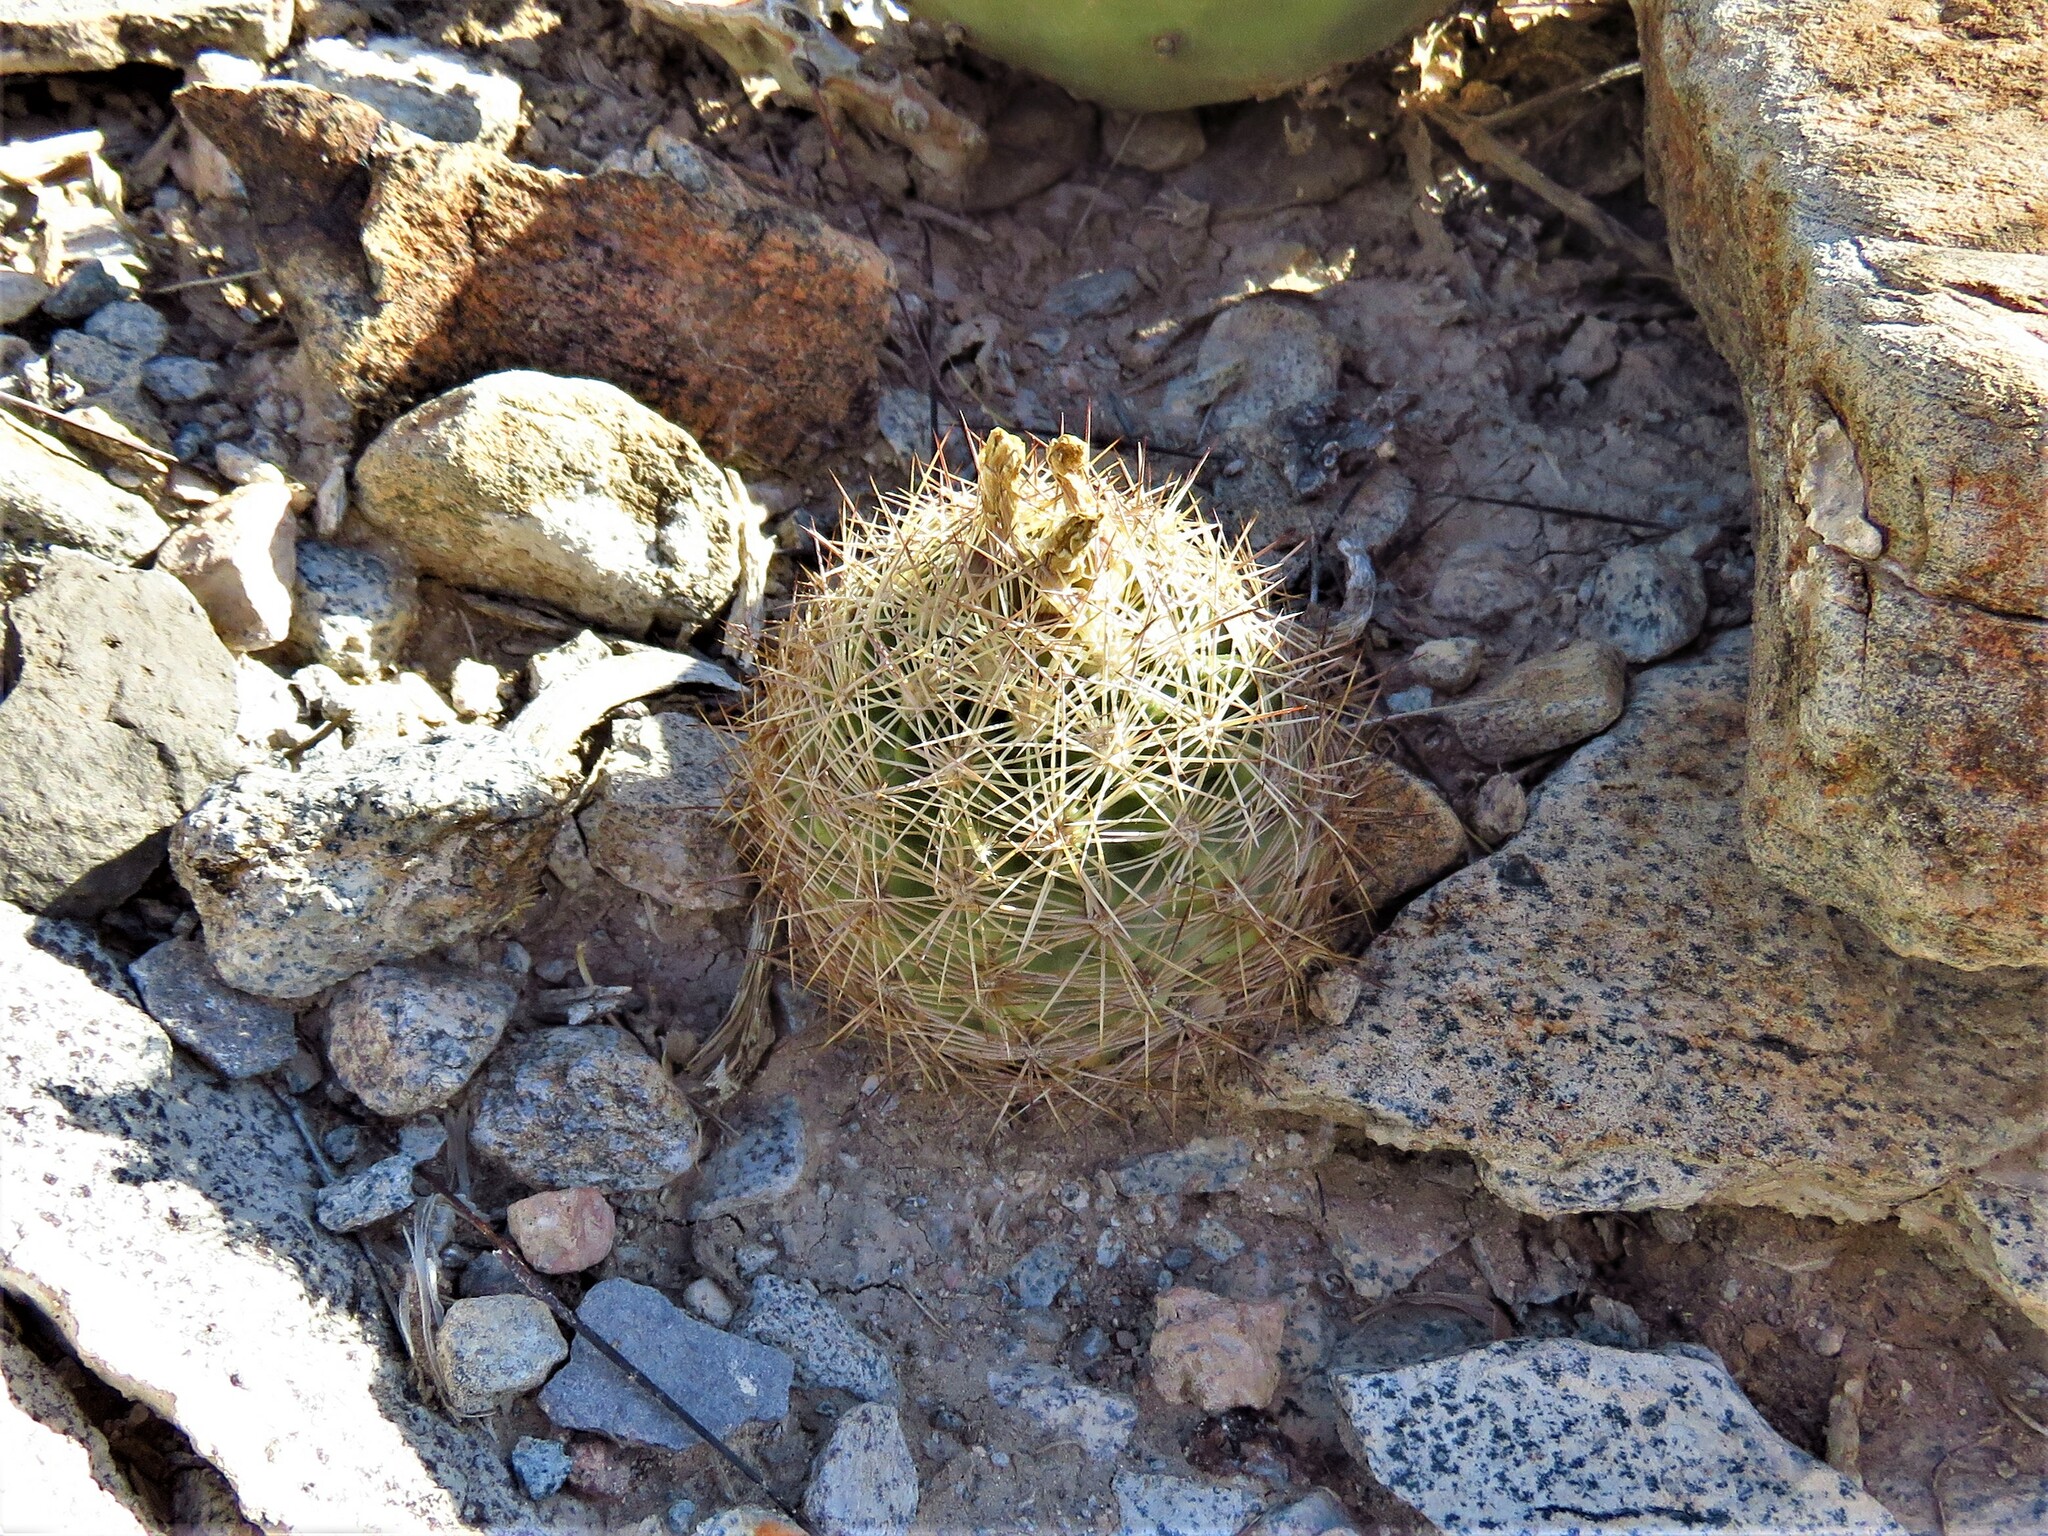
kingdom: Plantae
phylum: Tracheophyta
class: Magnoliopsida
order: Caryophyllales
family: Cactaceae
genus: Sclerocactus
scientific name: Sclerocactus warnockii
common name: Pineapple cactus
